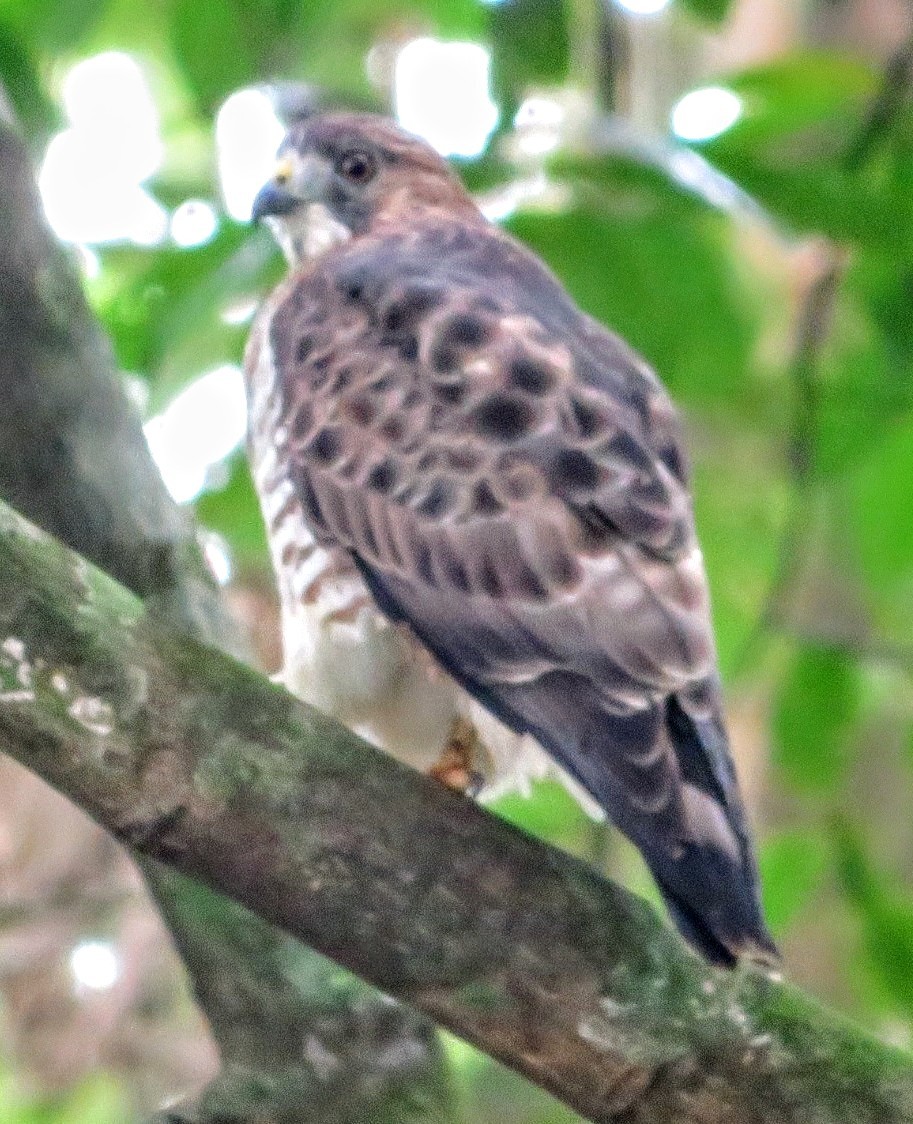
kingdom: Animalia
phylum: Chordata
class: Aves
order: Accipitriformes
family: Accipitridae
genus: Buteo
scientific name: Buteo platypterus
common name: Broad-winged hawk
